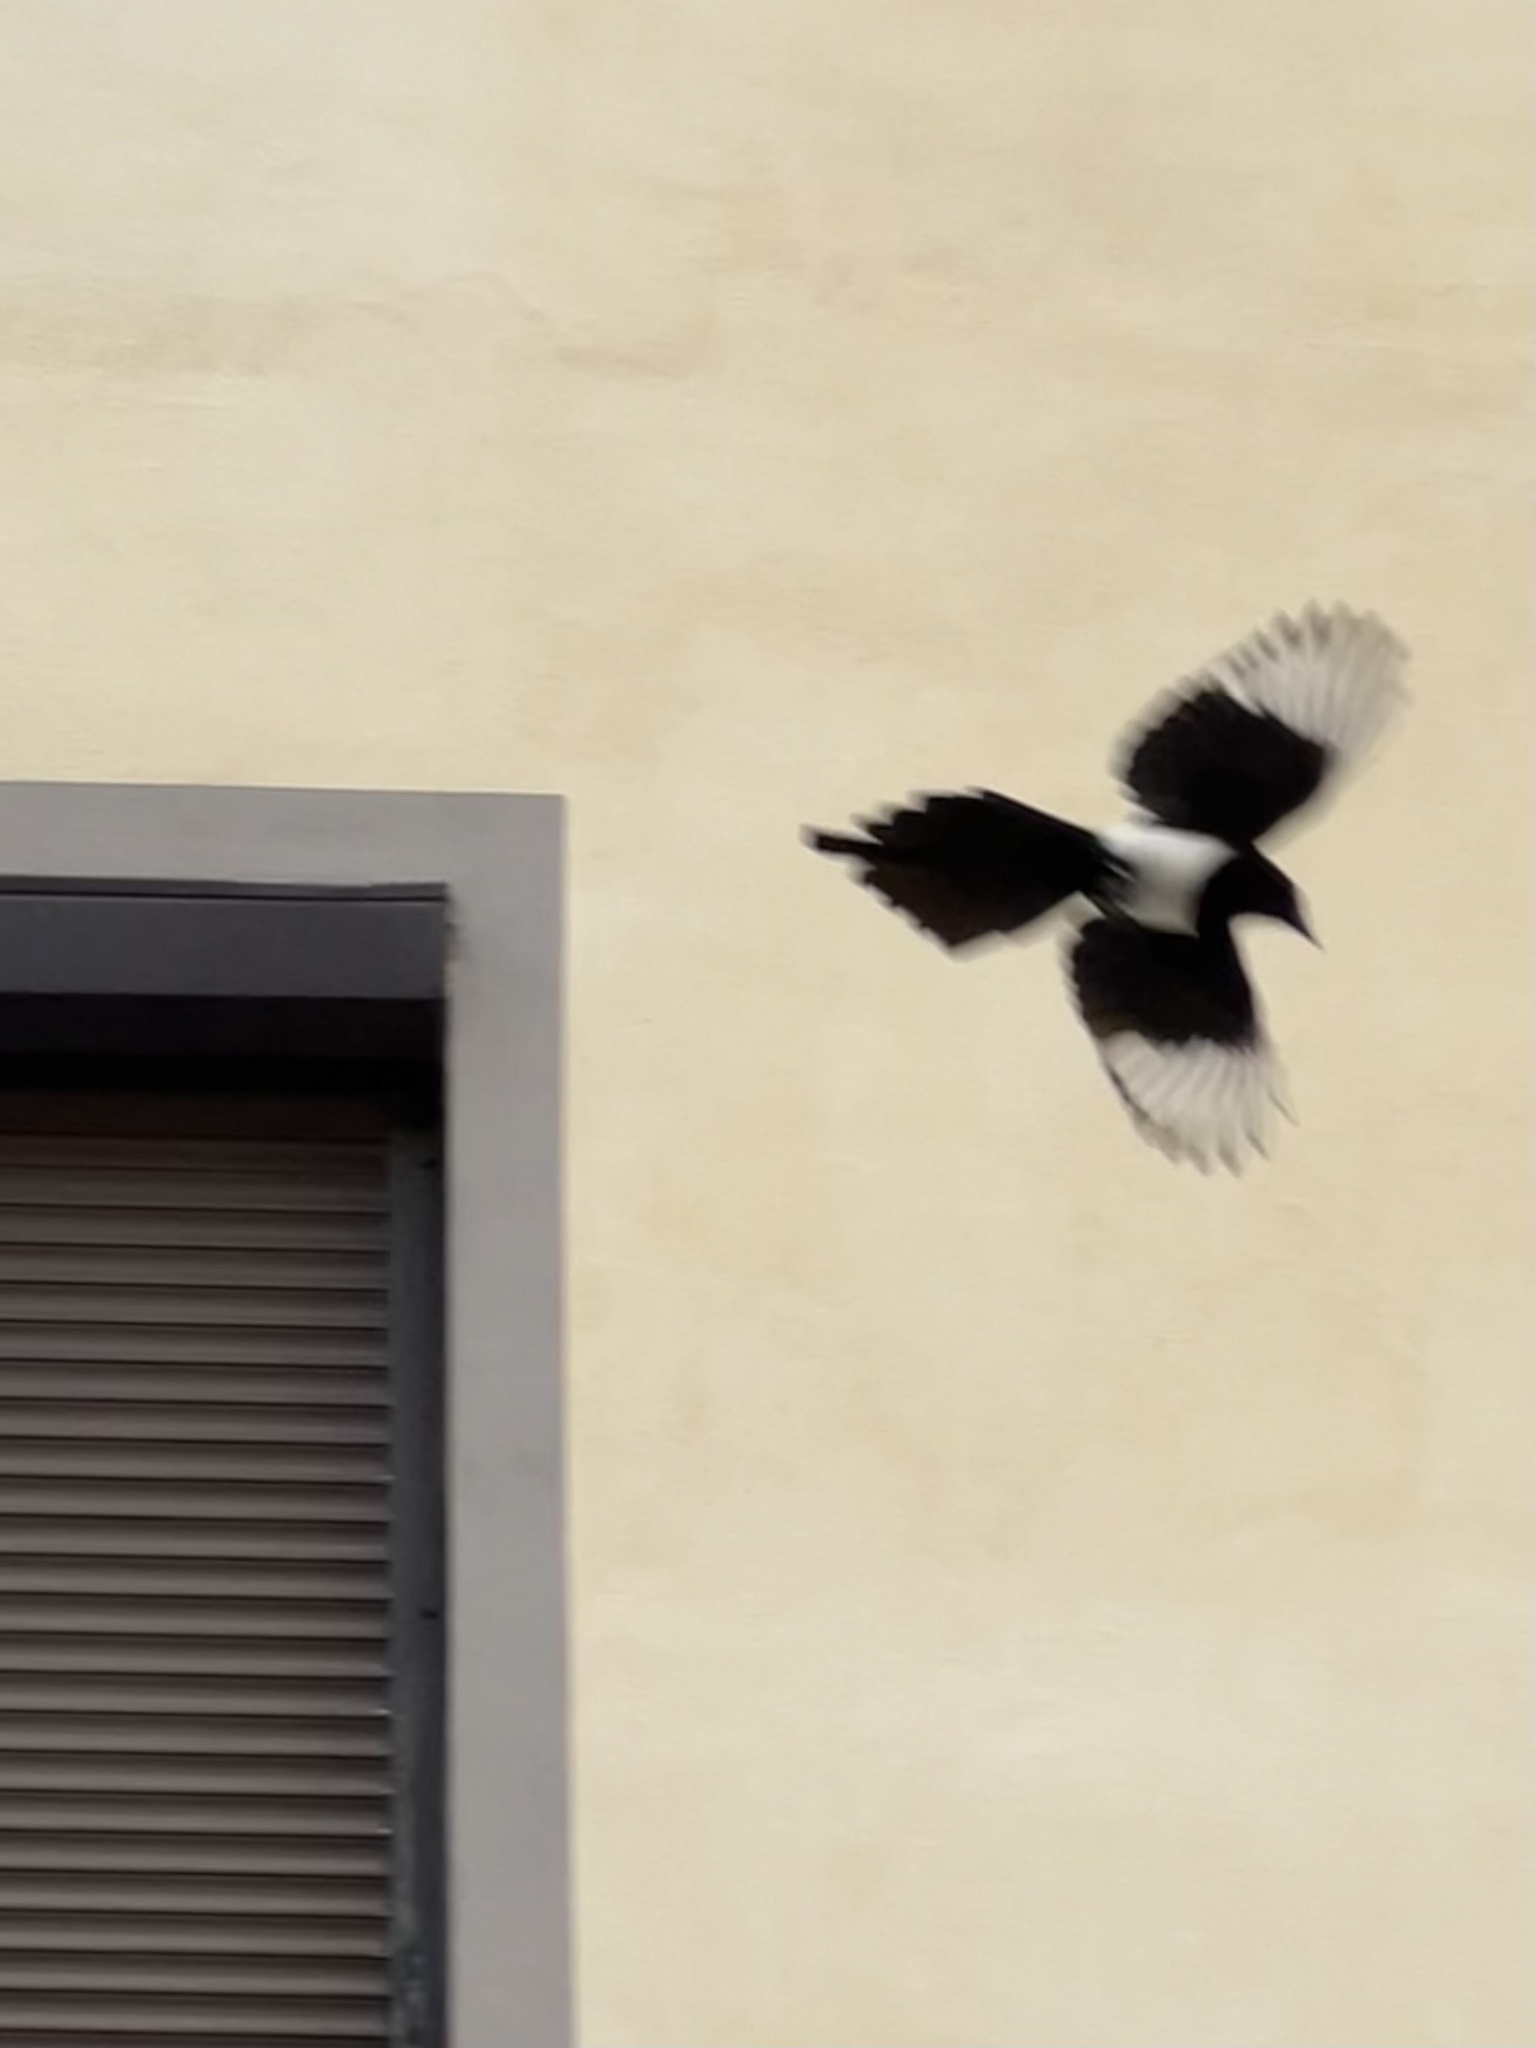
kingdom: Animalia
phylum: Chordata
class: Aves
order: Passeriformes
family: Corvidae
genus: Pica
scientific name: Pica pica
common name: Eurasian magpie
